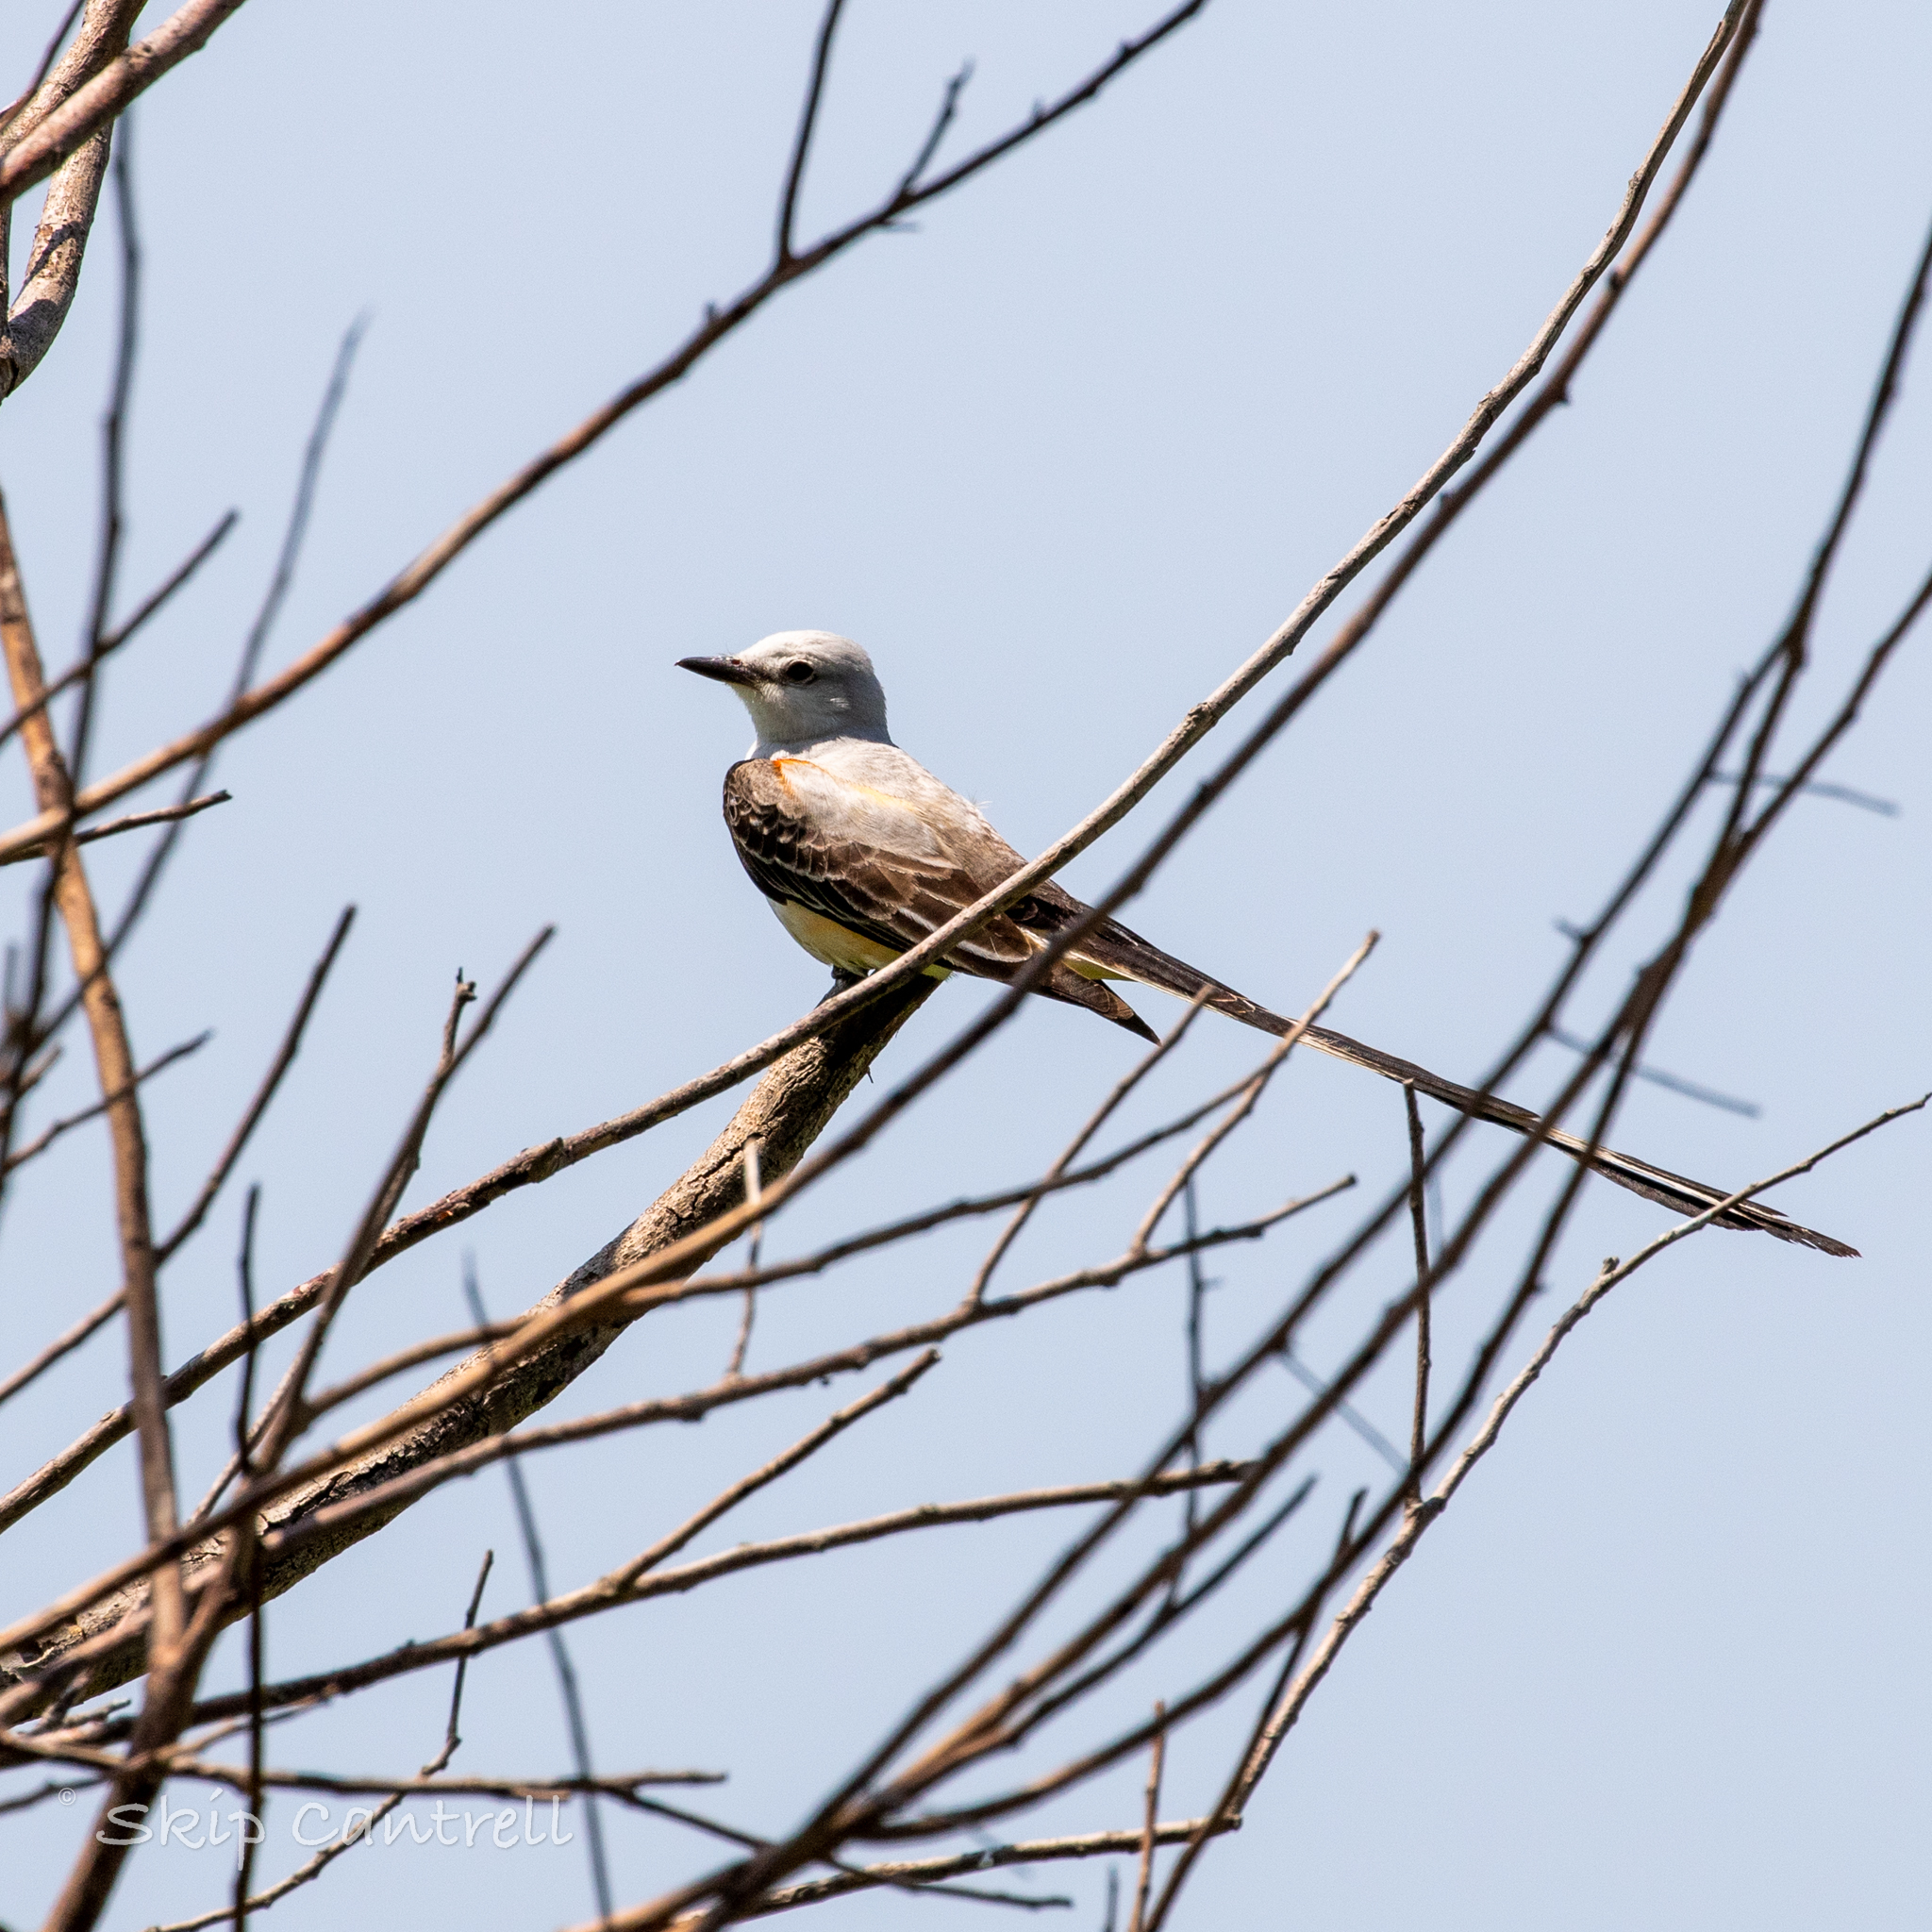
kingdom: Animalia
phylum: Chordata
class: Aves
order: Passeriformes
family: Tyrannidae
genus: Tyrannus
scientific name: Tyrannus forficatus
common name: Scissor-tailed flycatcher
